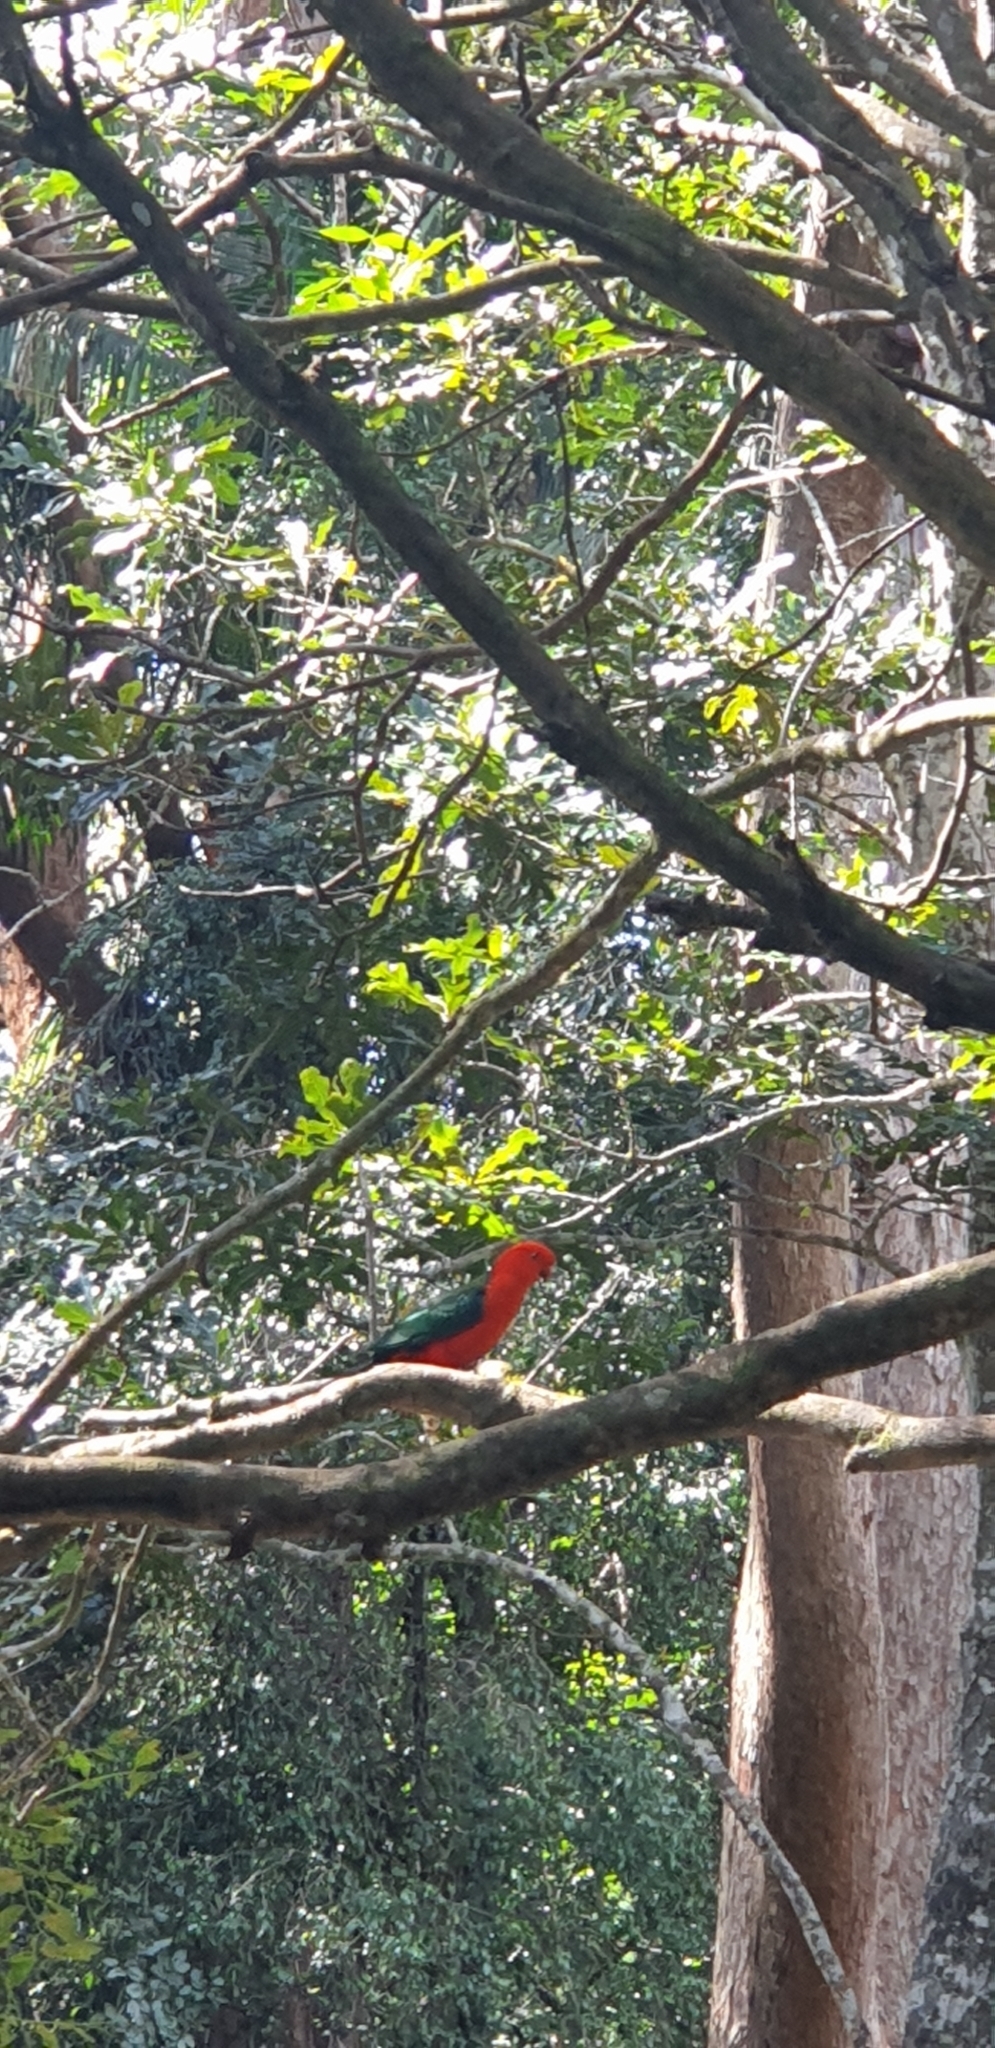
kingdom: Animalia
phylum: Chordata
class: Aves
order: Psittaciformes
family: Psittacidae
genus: Alisterus
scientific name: Alisterus scapularis
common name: Australian king parrot
